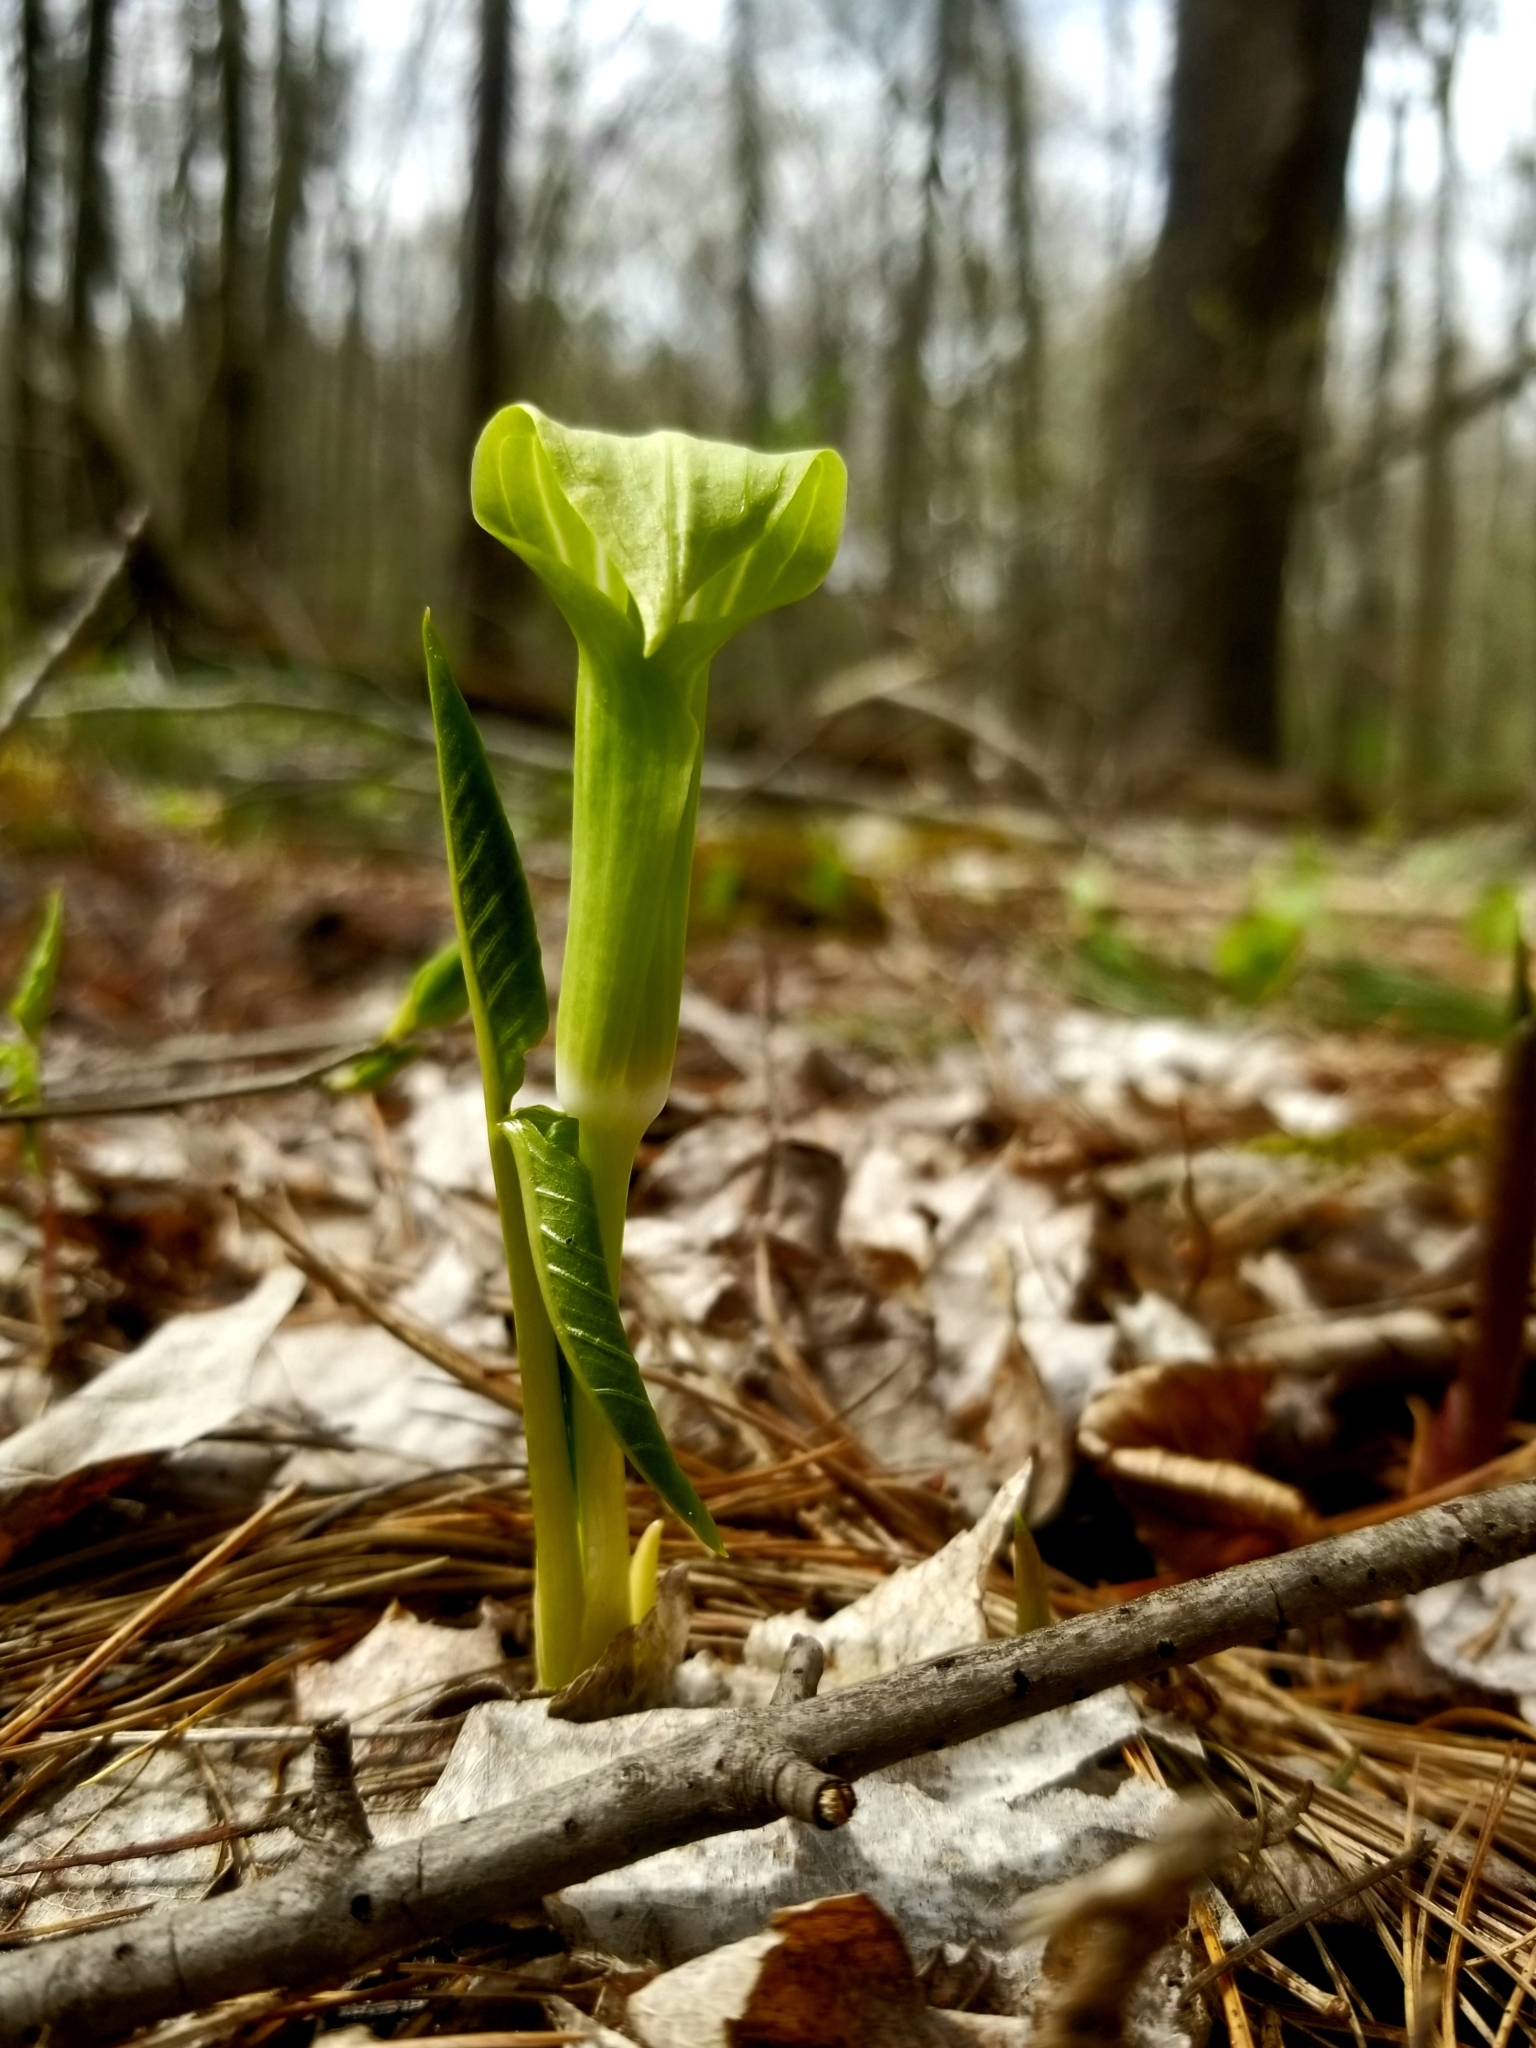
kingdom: Plantae
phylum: Tracheophyta
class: Liliopsida
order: Alismatales
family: Araceae
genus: Arisaema
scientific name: Arisaema triphyllum
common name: Jack-in-the-pulpit
